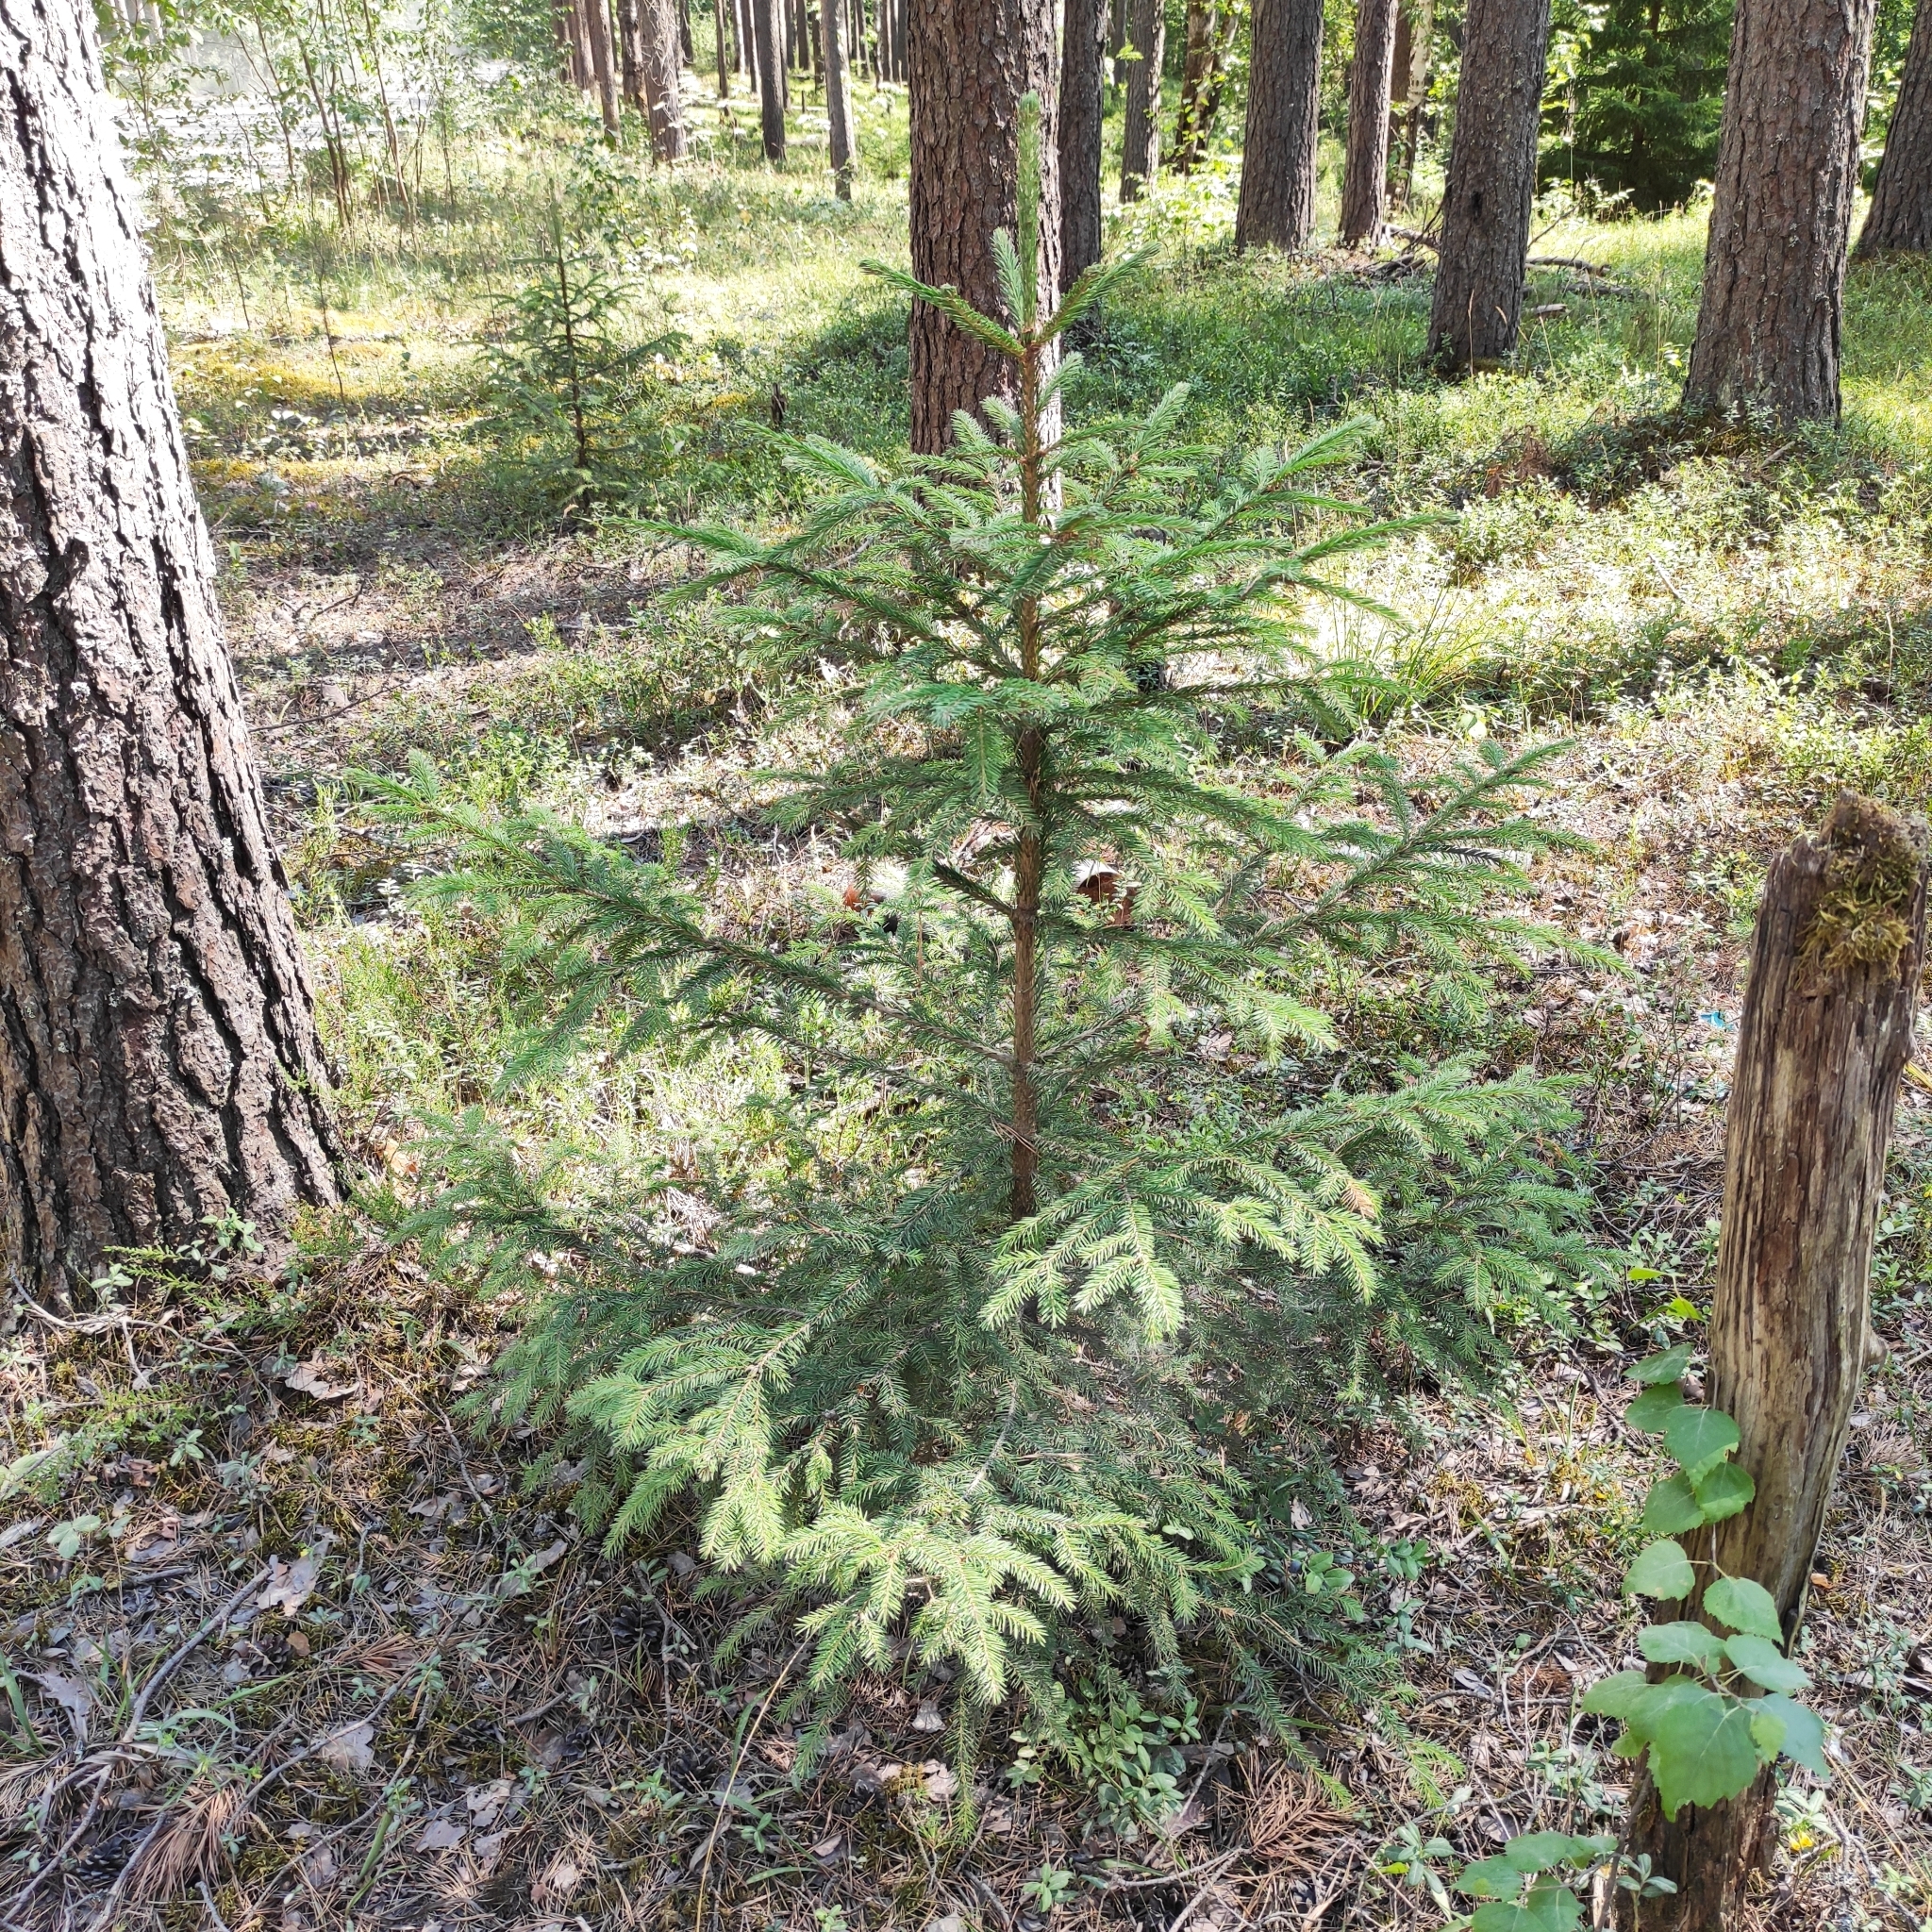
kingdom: Plantae
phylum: Tracheophyta
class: Pinopsida
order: Pinales
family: Pinaceae
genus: Picea
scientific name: Picea
